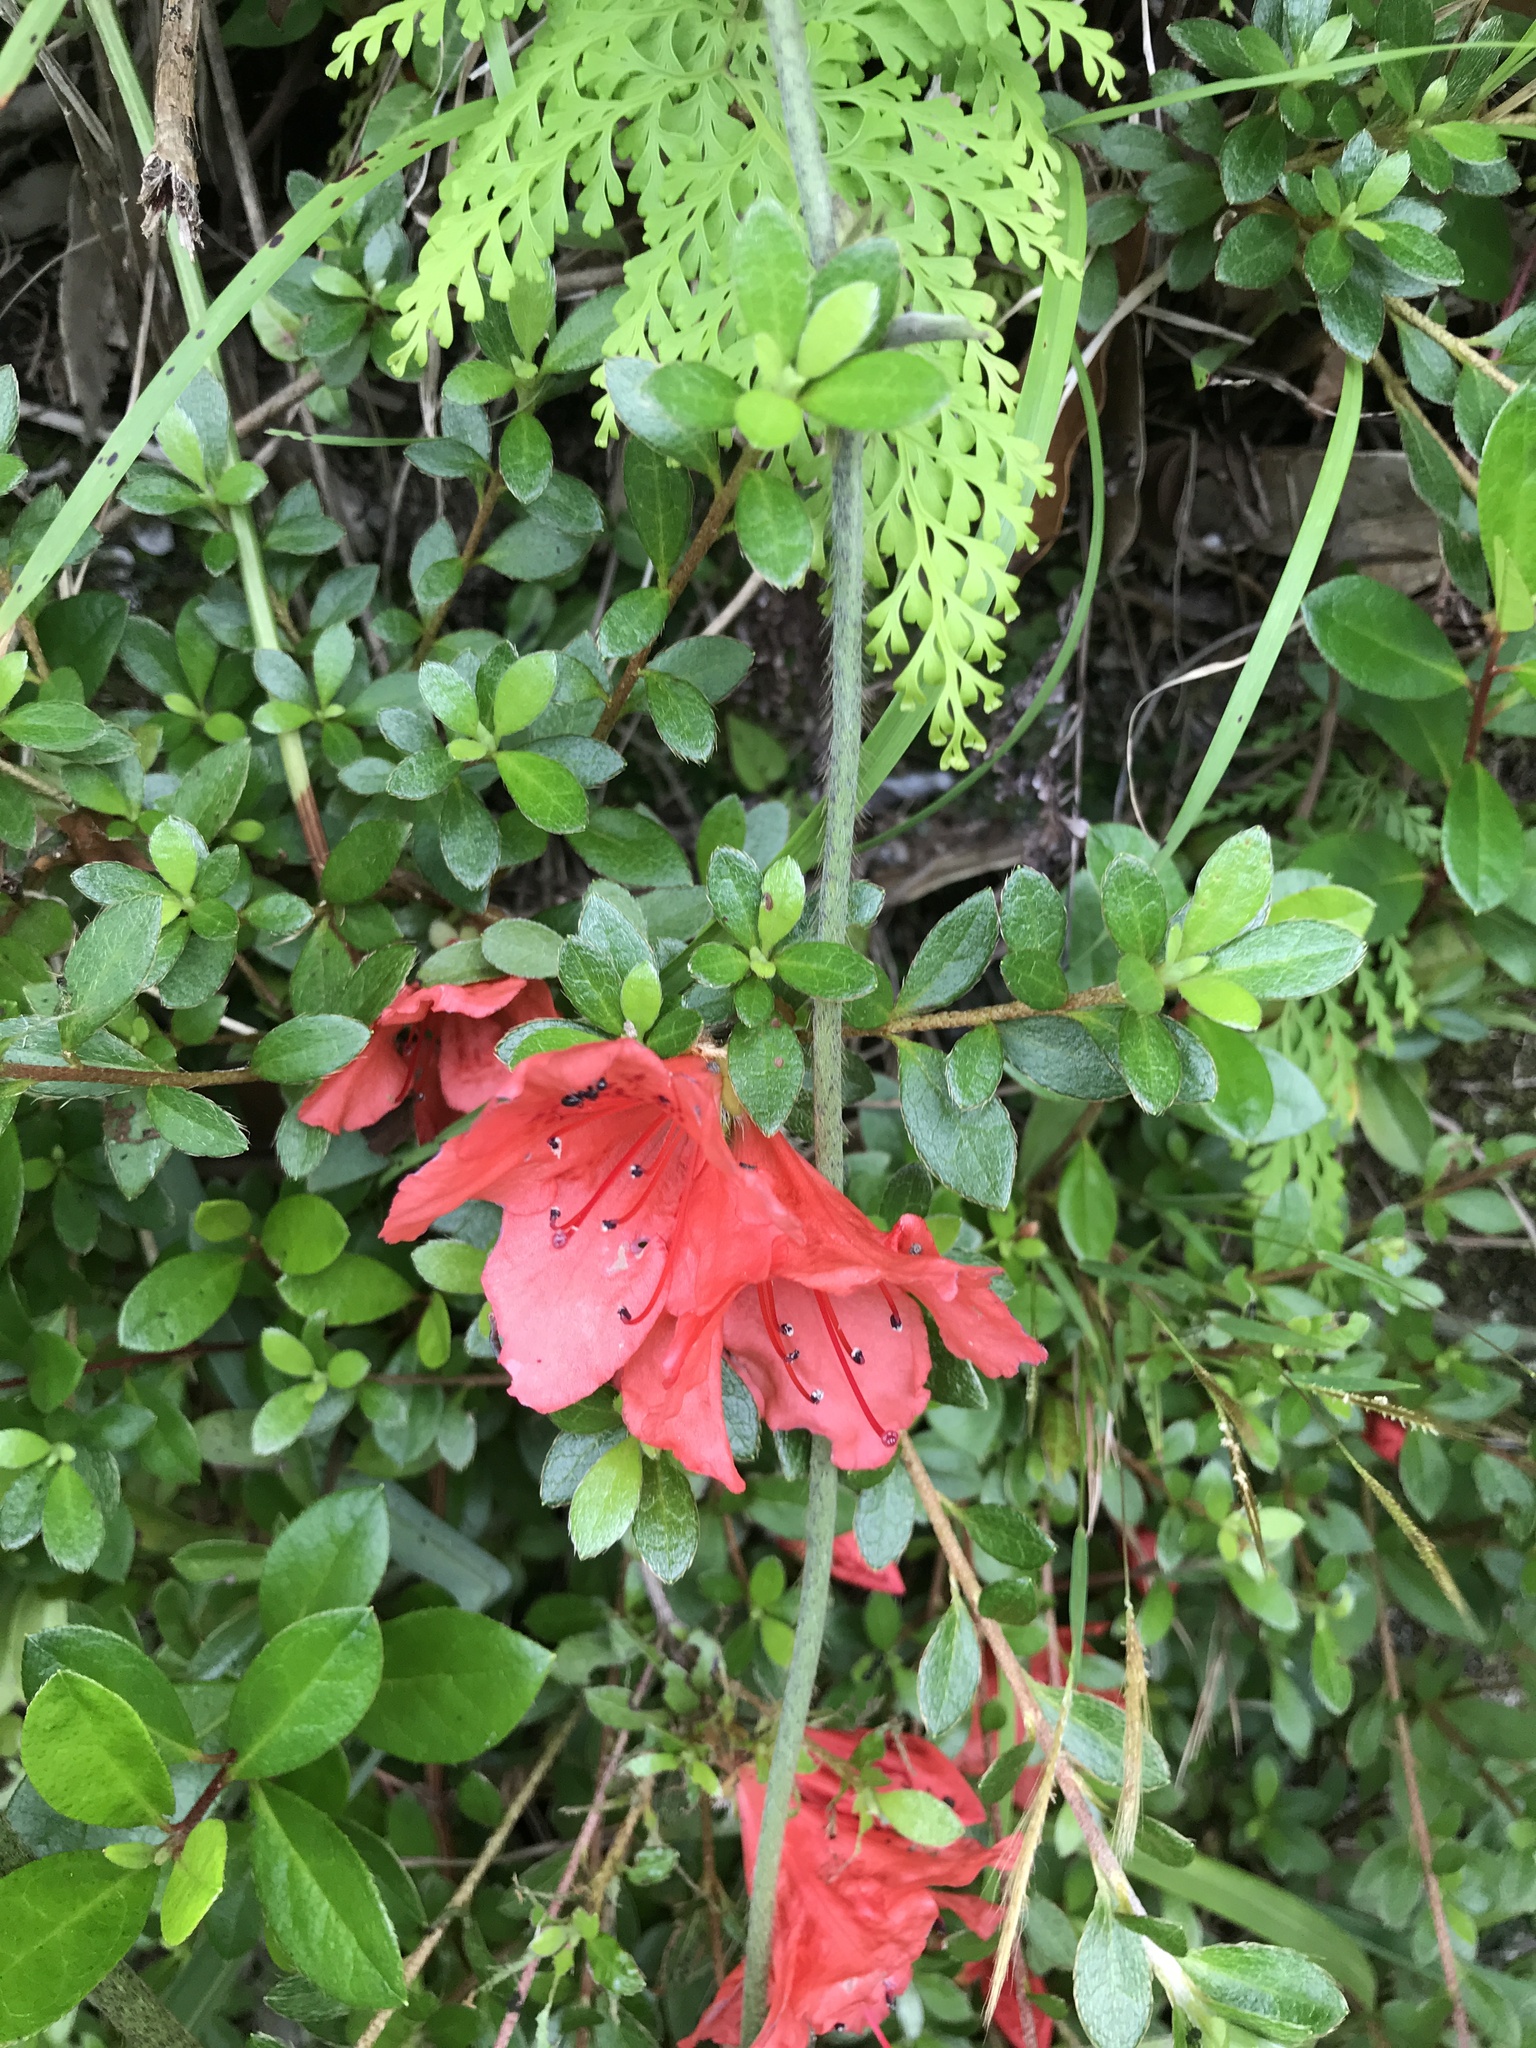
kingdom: Plantae
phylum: Tracheophyta
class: Magnoliopsida
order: Ericales
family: Ericaceae
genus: Rhododendron
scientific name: Rhododendron kaempferi
